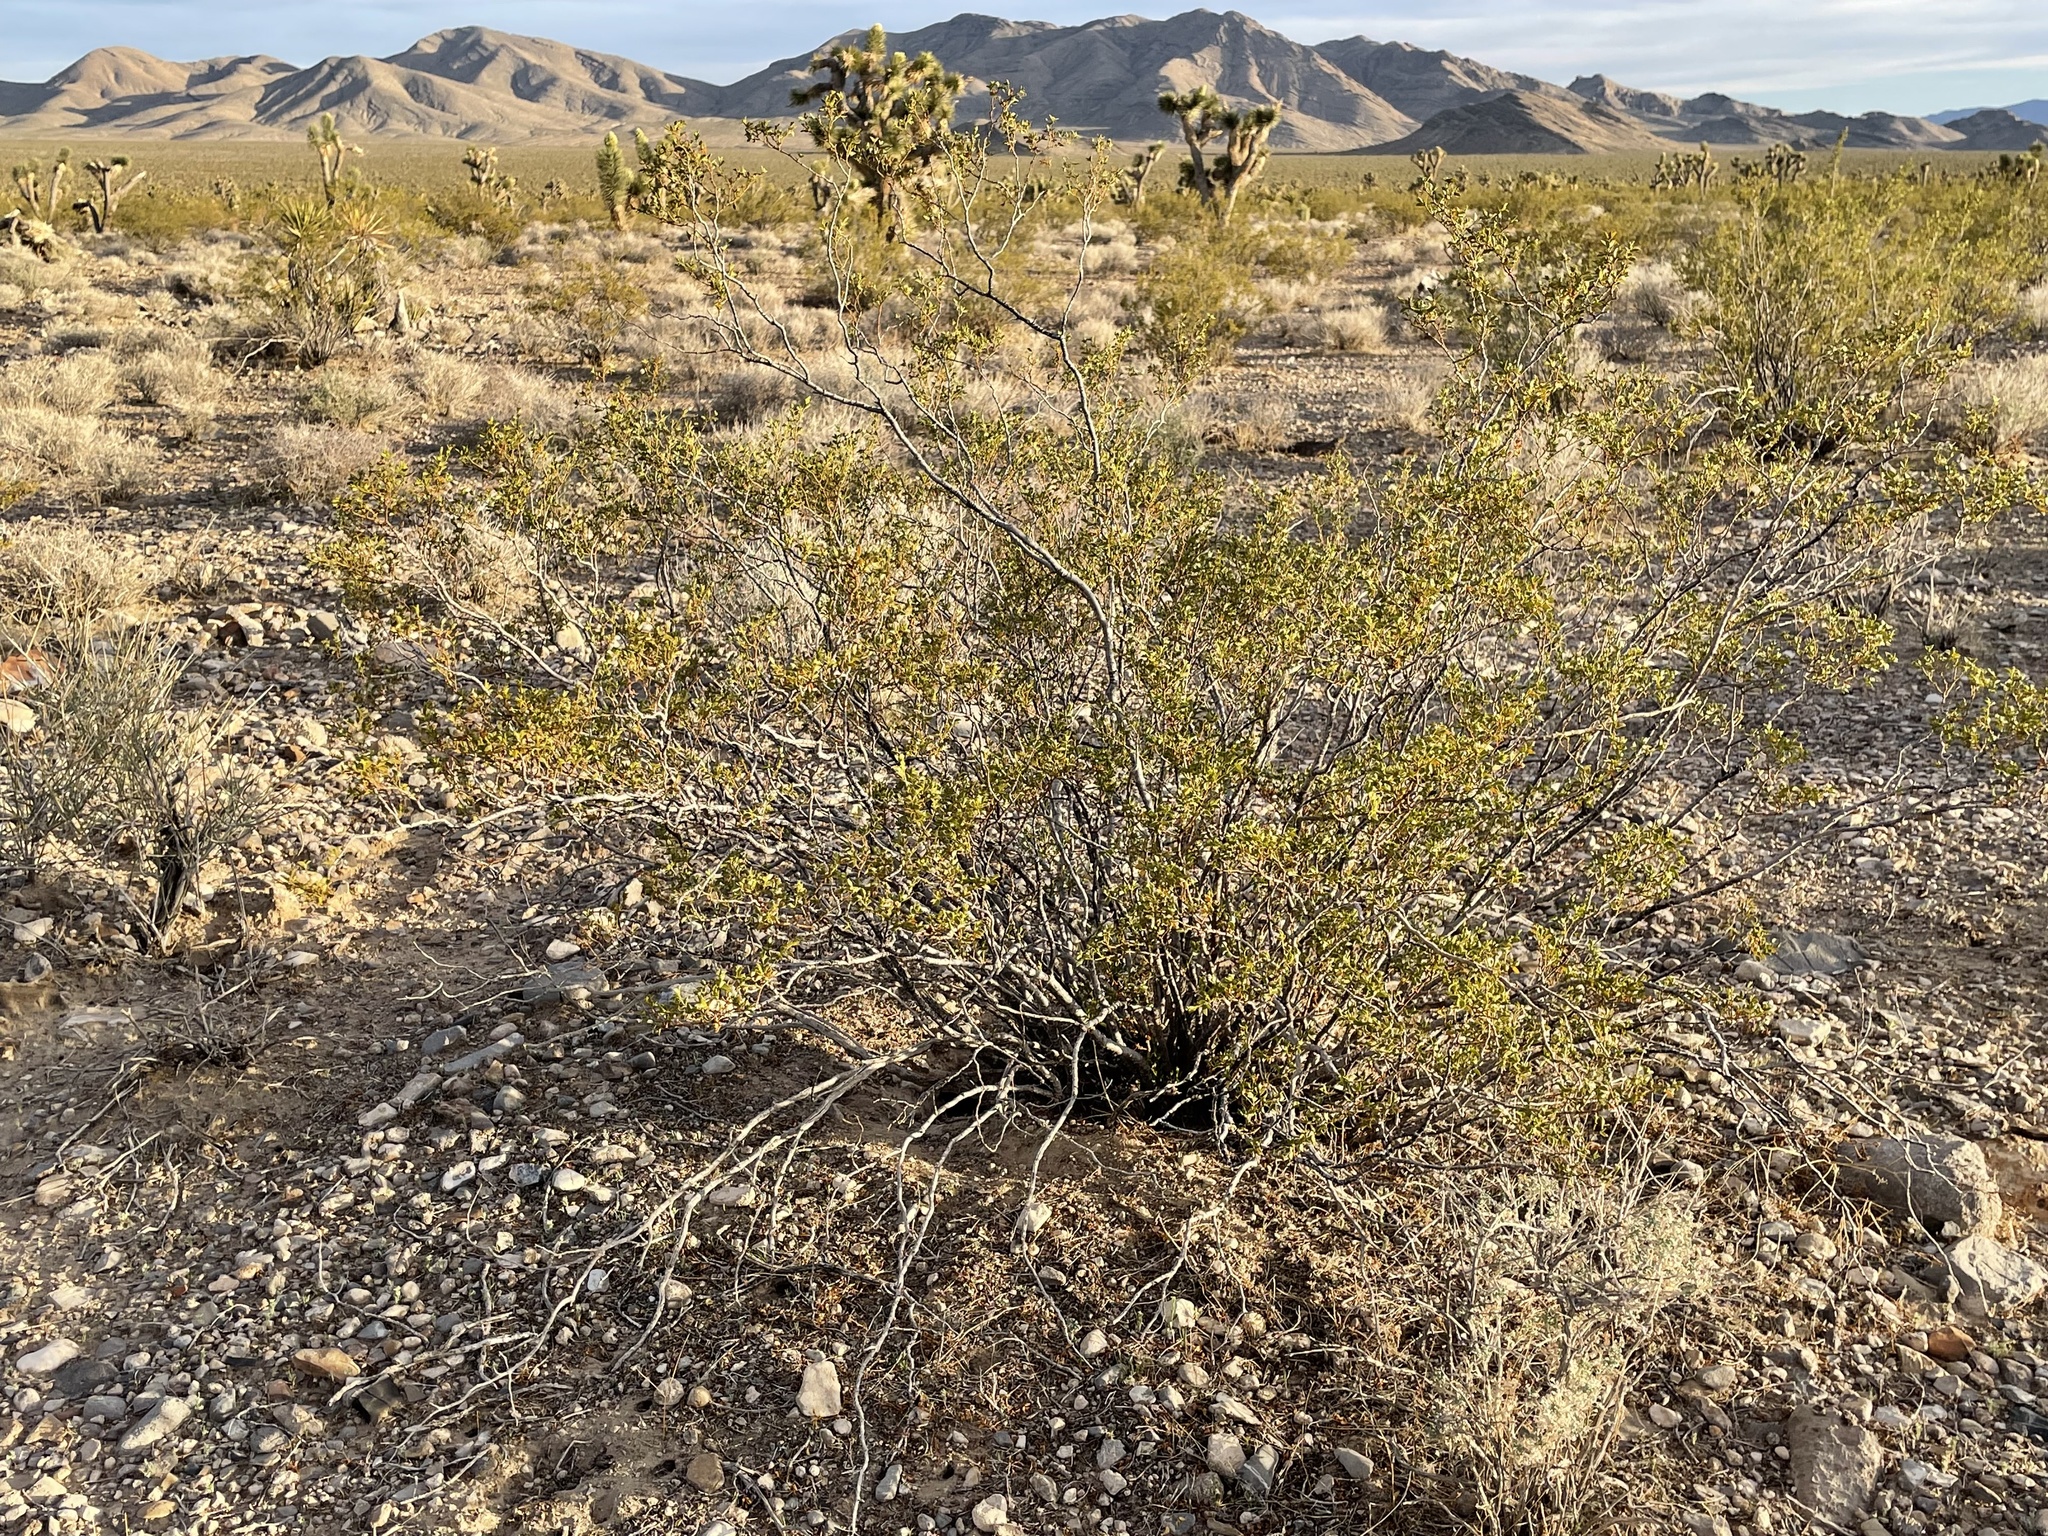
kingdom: Plantae
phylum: Tracheophyta
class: Magnoliopsida
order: Zygophyllales
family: Zygophyllaceae
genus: Larrea
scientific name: Larrea tridentata
